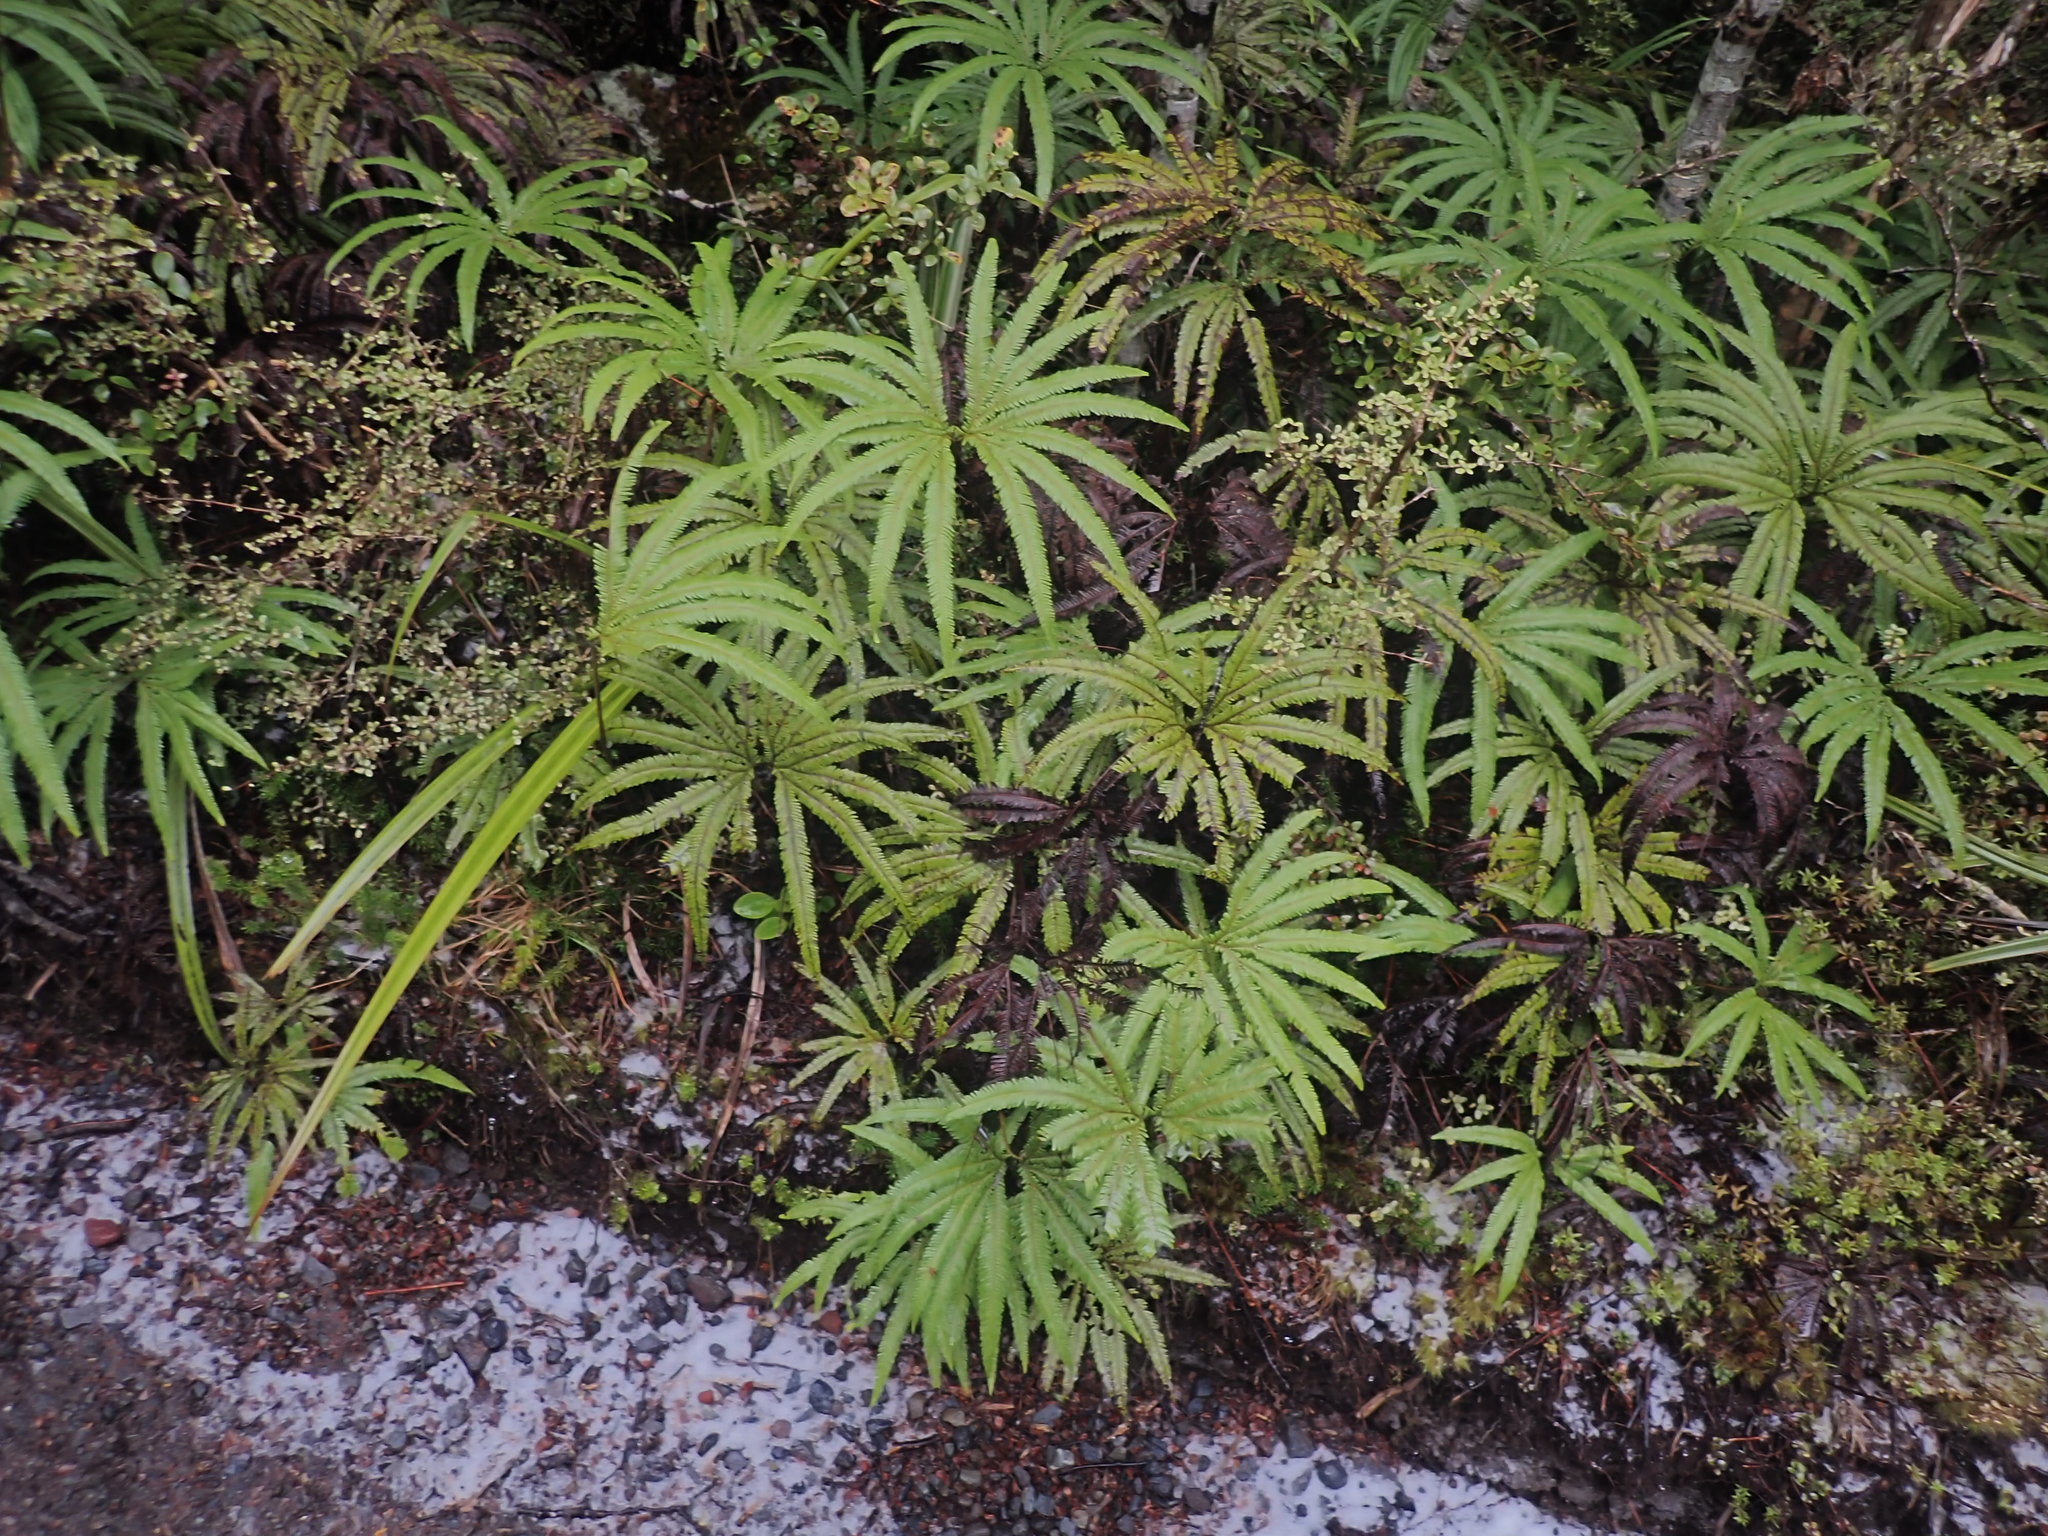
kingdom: Plantae
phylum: Tracheophyta
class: Polypodiopsida
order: Gleicheniales
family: Gleicheniaceae
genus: Sticherus
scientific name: Sticherus cunninghamii
